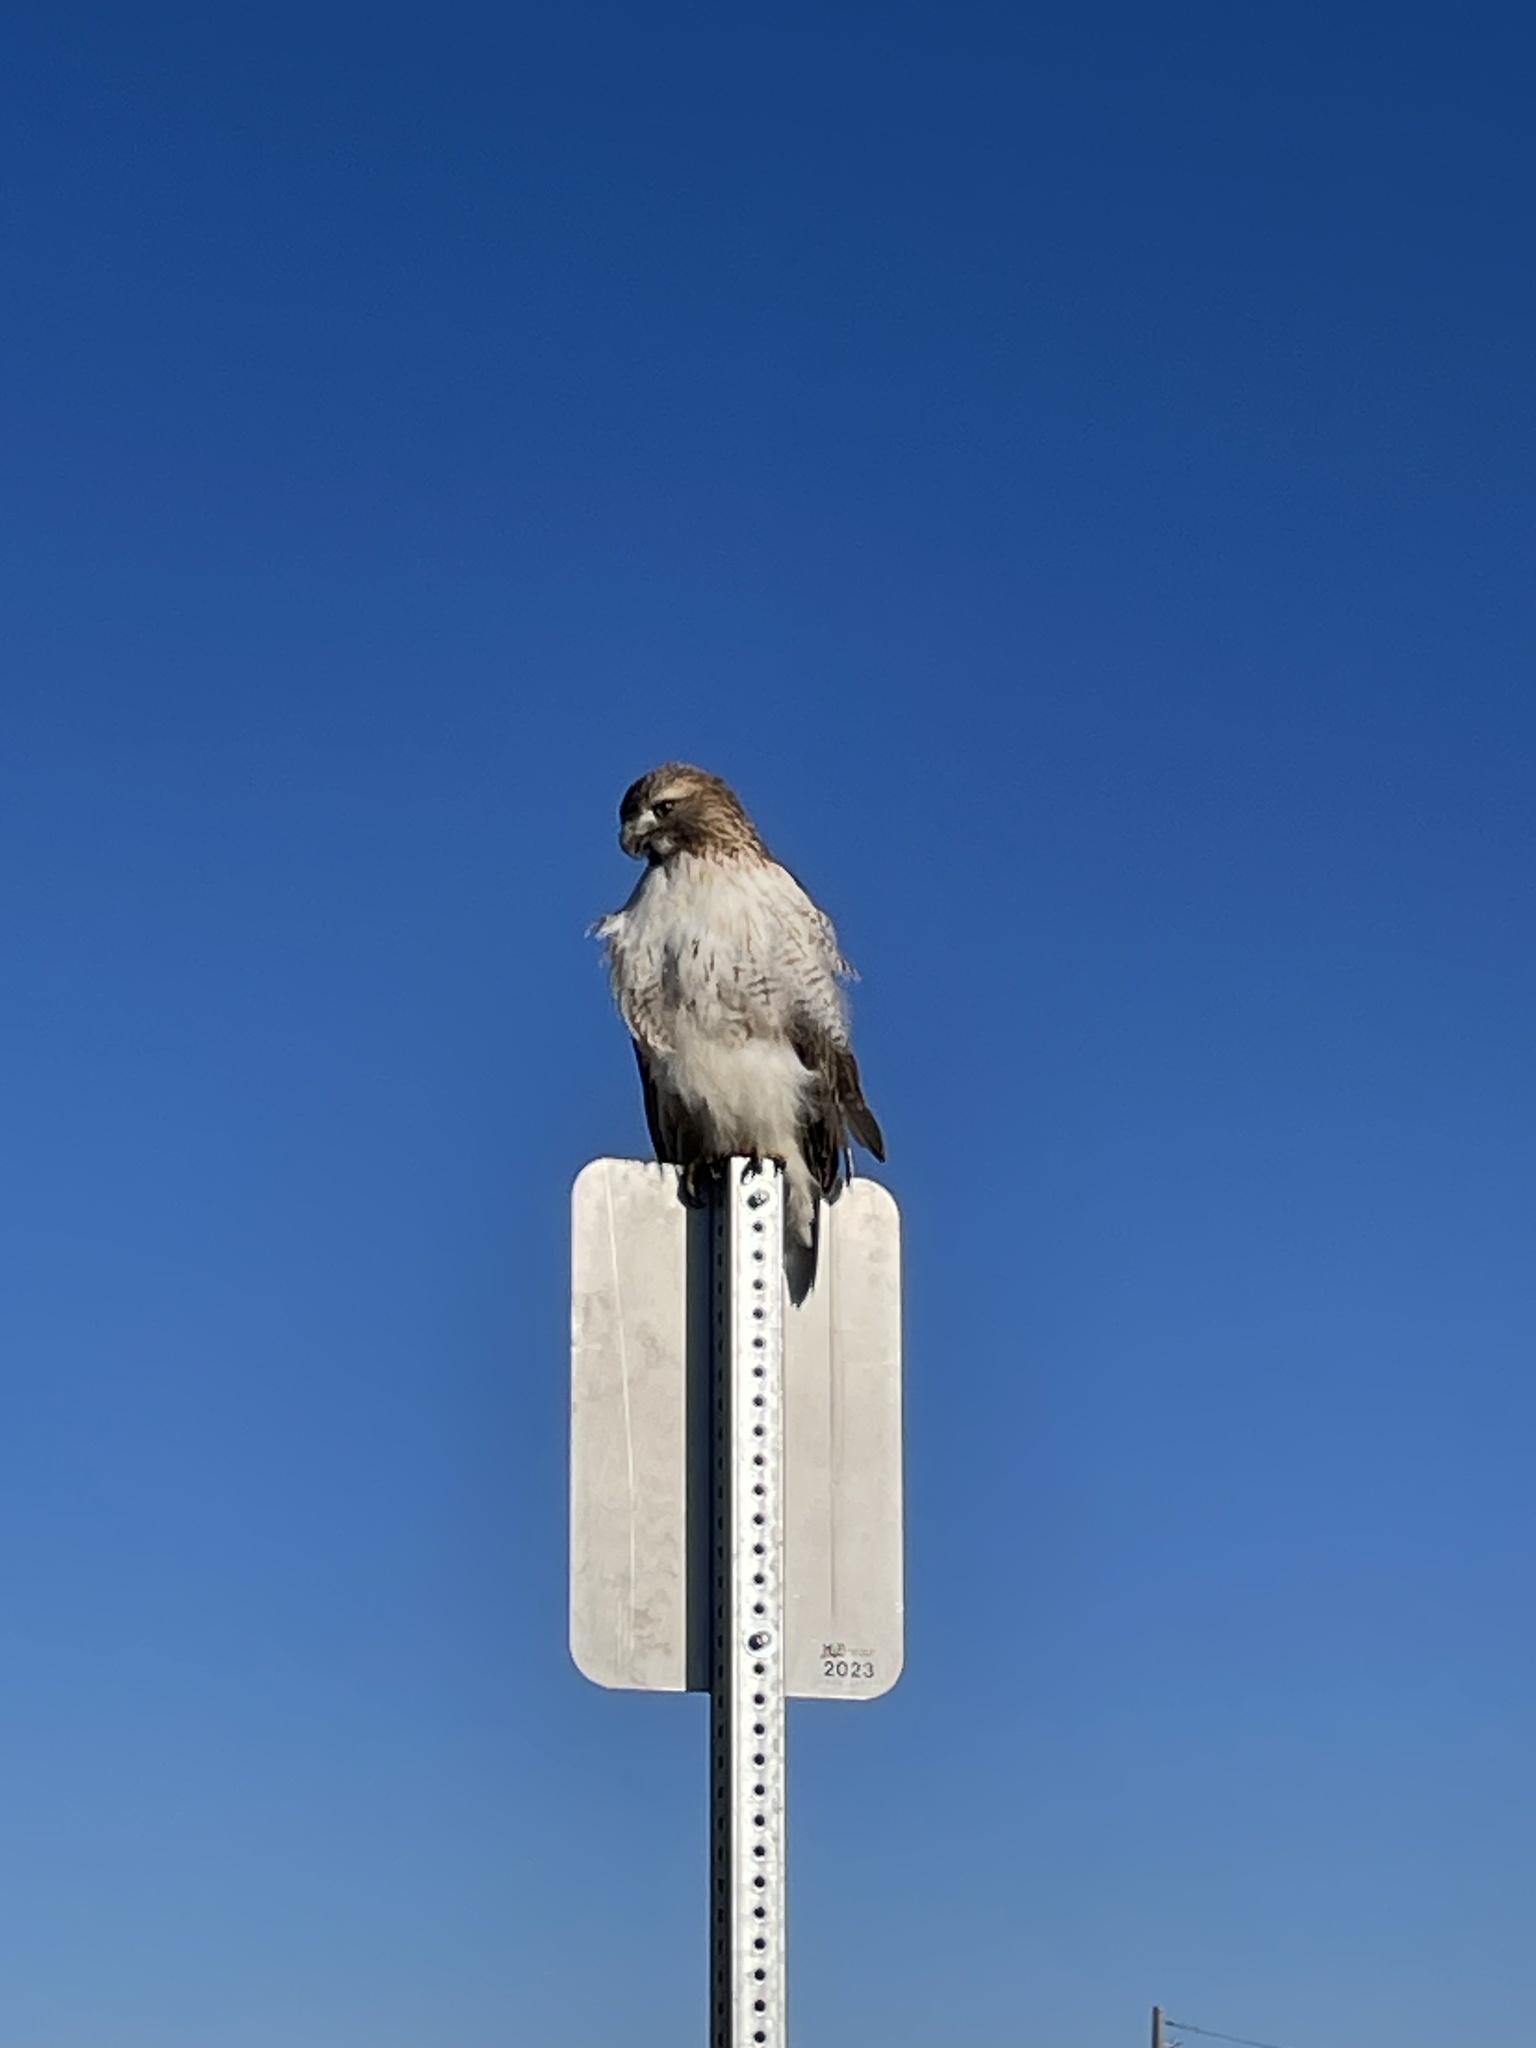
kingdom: Animalia
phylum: Chordata
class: Aves
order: Accipitriformes
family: Accipitridae
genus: Buteo
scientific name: Buteo jamaicensis
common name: Red-tailed hawk
